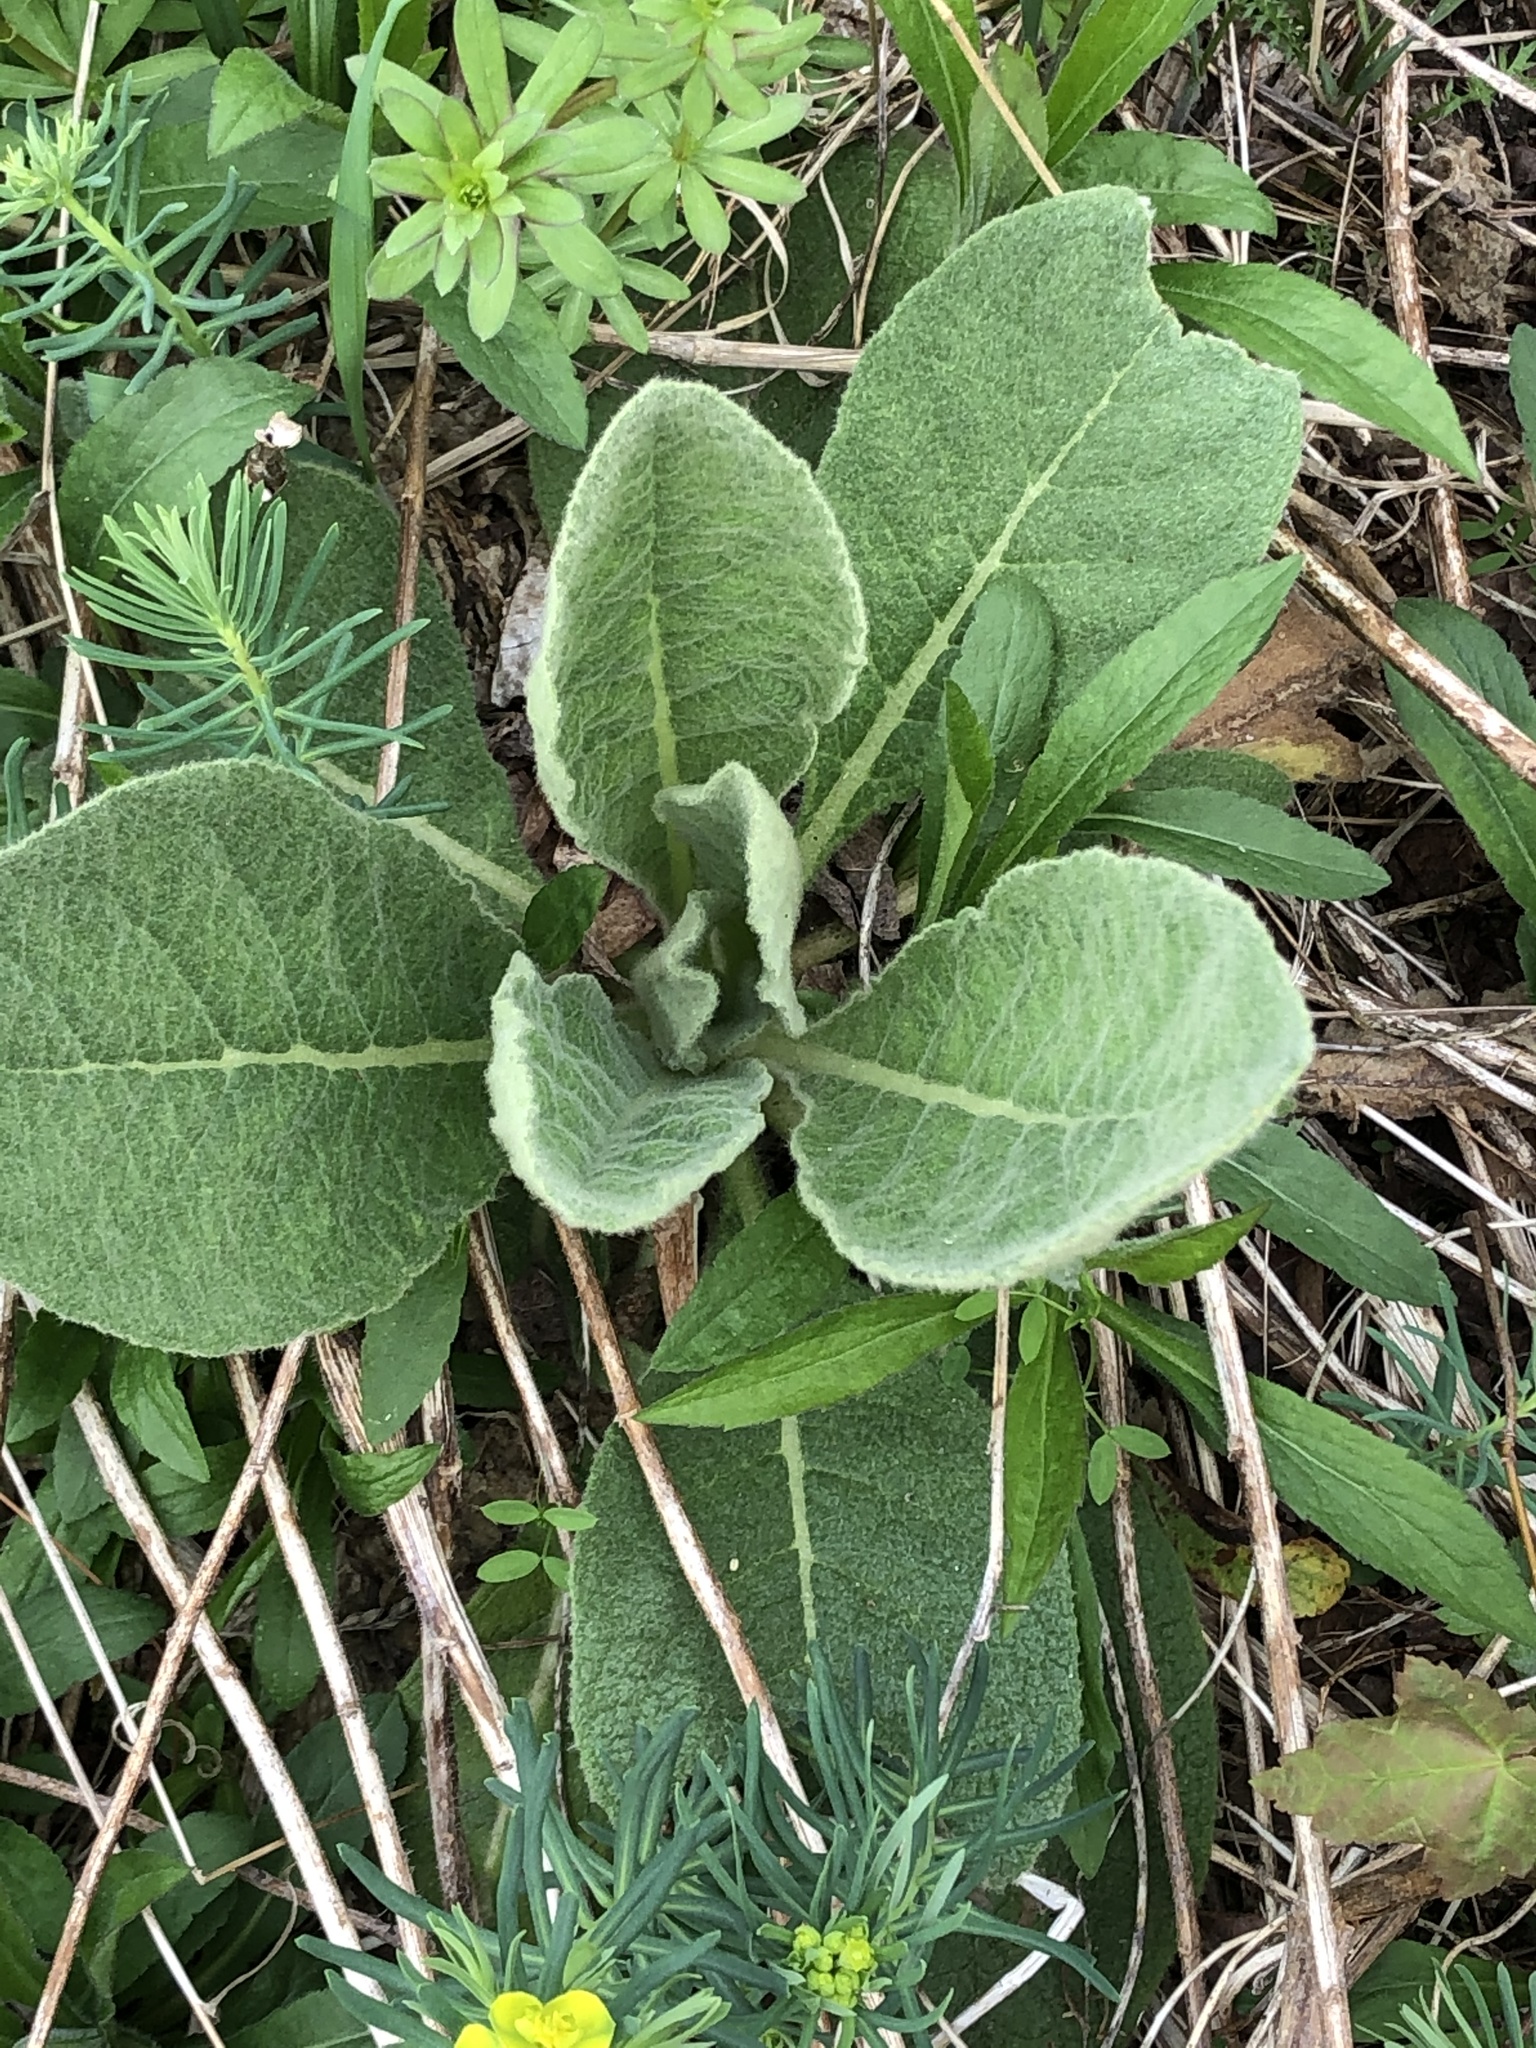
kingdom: Plantae
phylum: Tracheophyta
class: Magnoliopsida
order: Lamiales
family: Scrophulariaceae
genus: Verbascum
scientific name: Verbascum thapsus
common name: Common mullein
